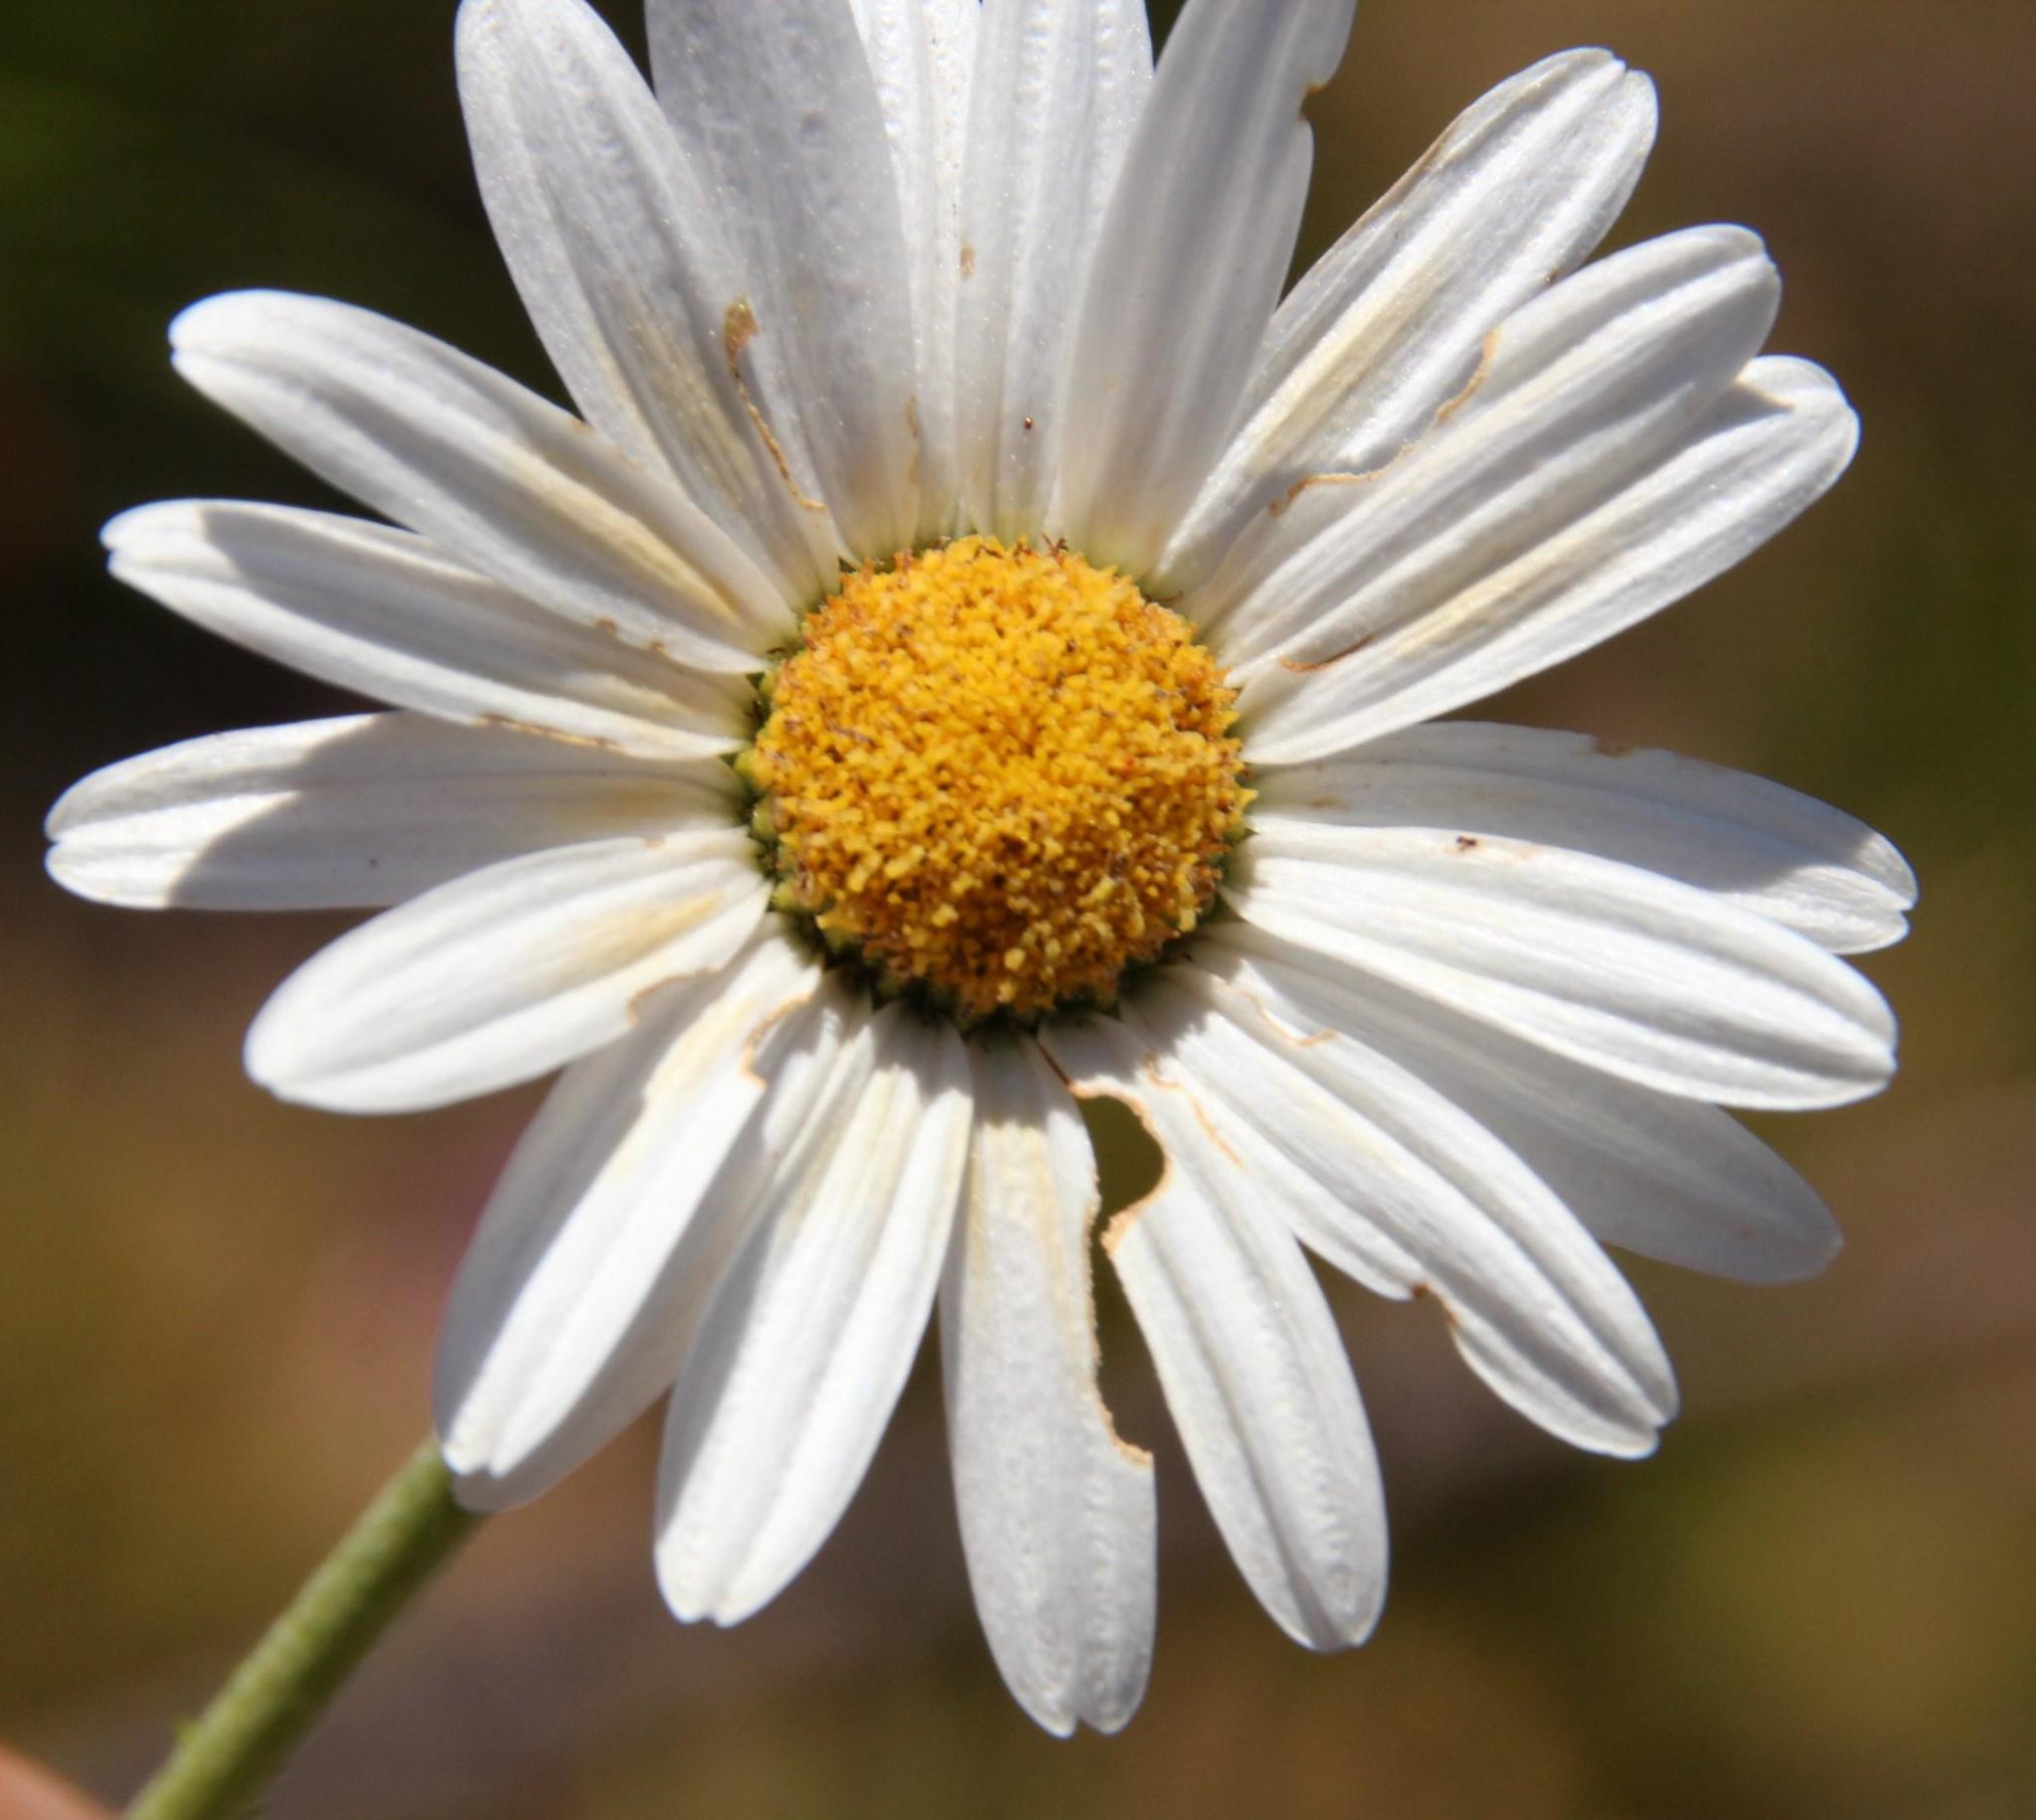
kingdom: Plantae
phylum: Tracheophyta
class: Magnoliopsida
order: Asterales
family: Asteraceae
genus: Osmitopsis
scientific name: Osmitopsis afra
